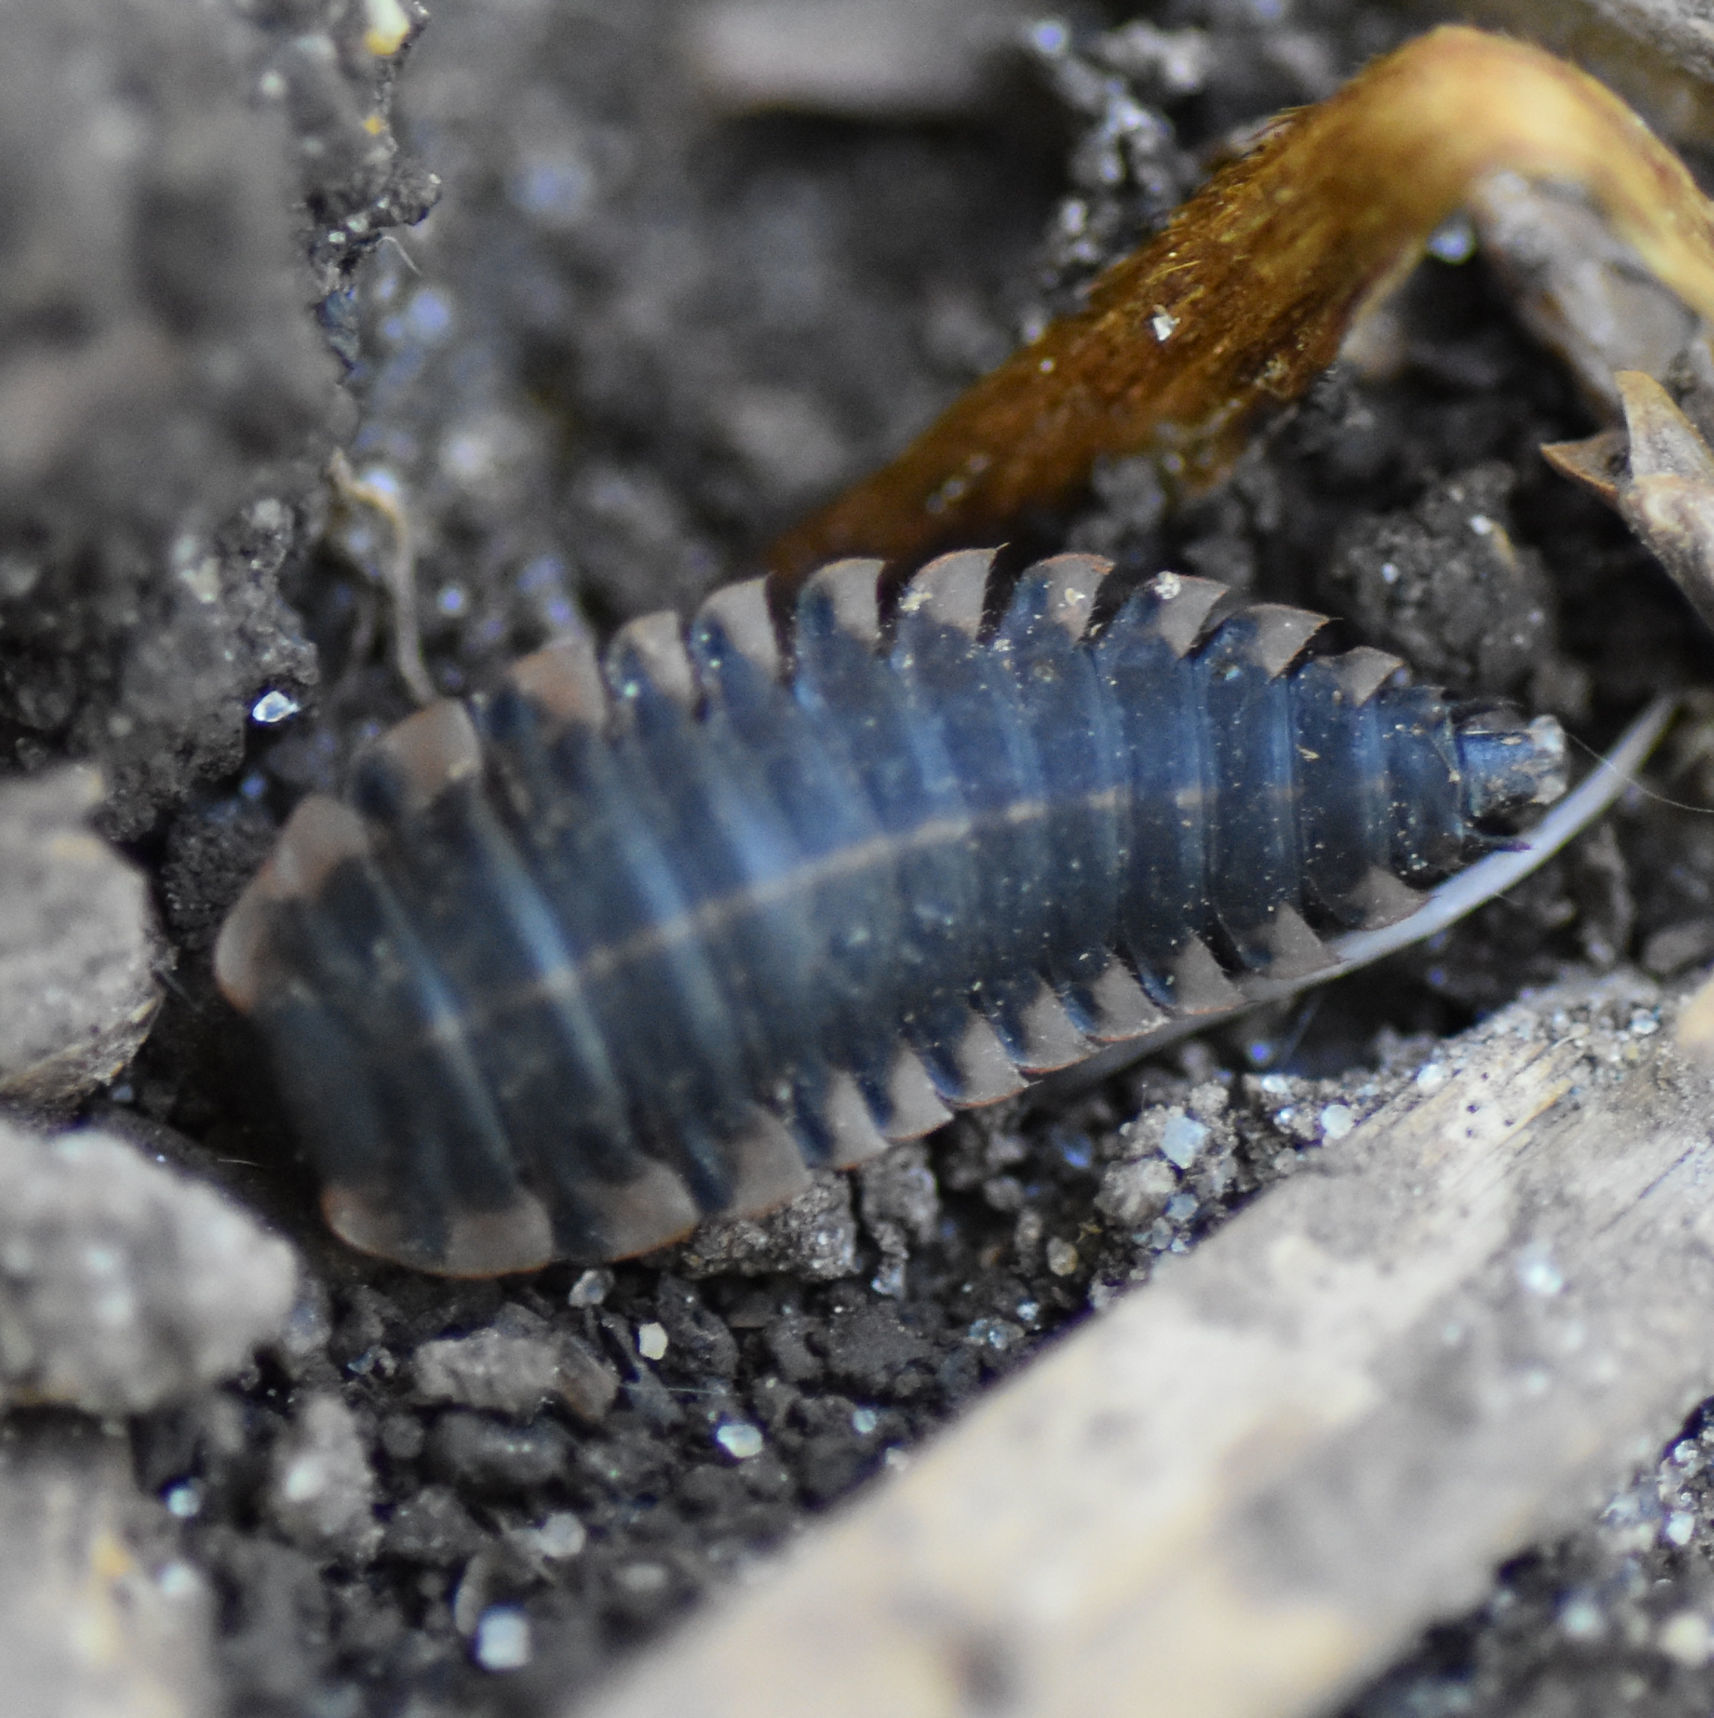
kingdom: Animalia
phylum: Arthropoda
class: Insecta
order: Coleoptera
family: Staphylinidae
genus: Oiceoptoma
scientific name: Oiceoptoma inaequale
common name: Ridged carrion beetle
